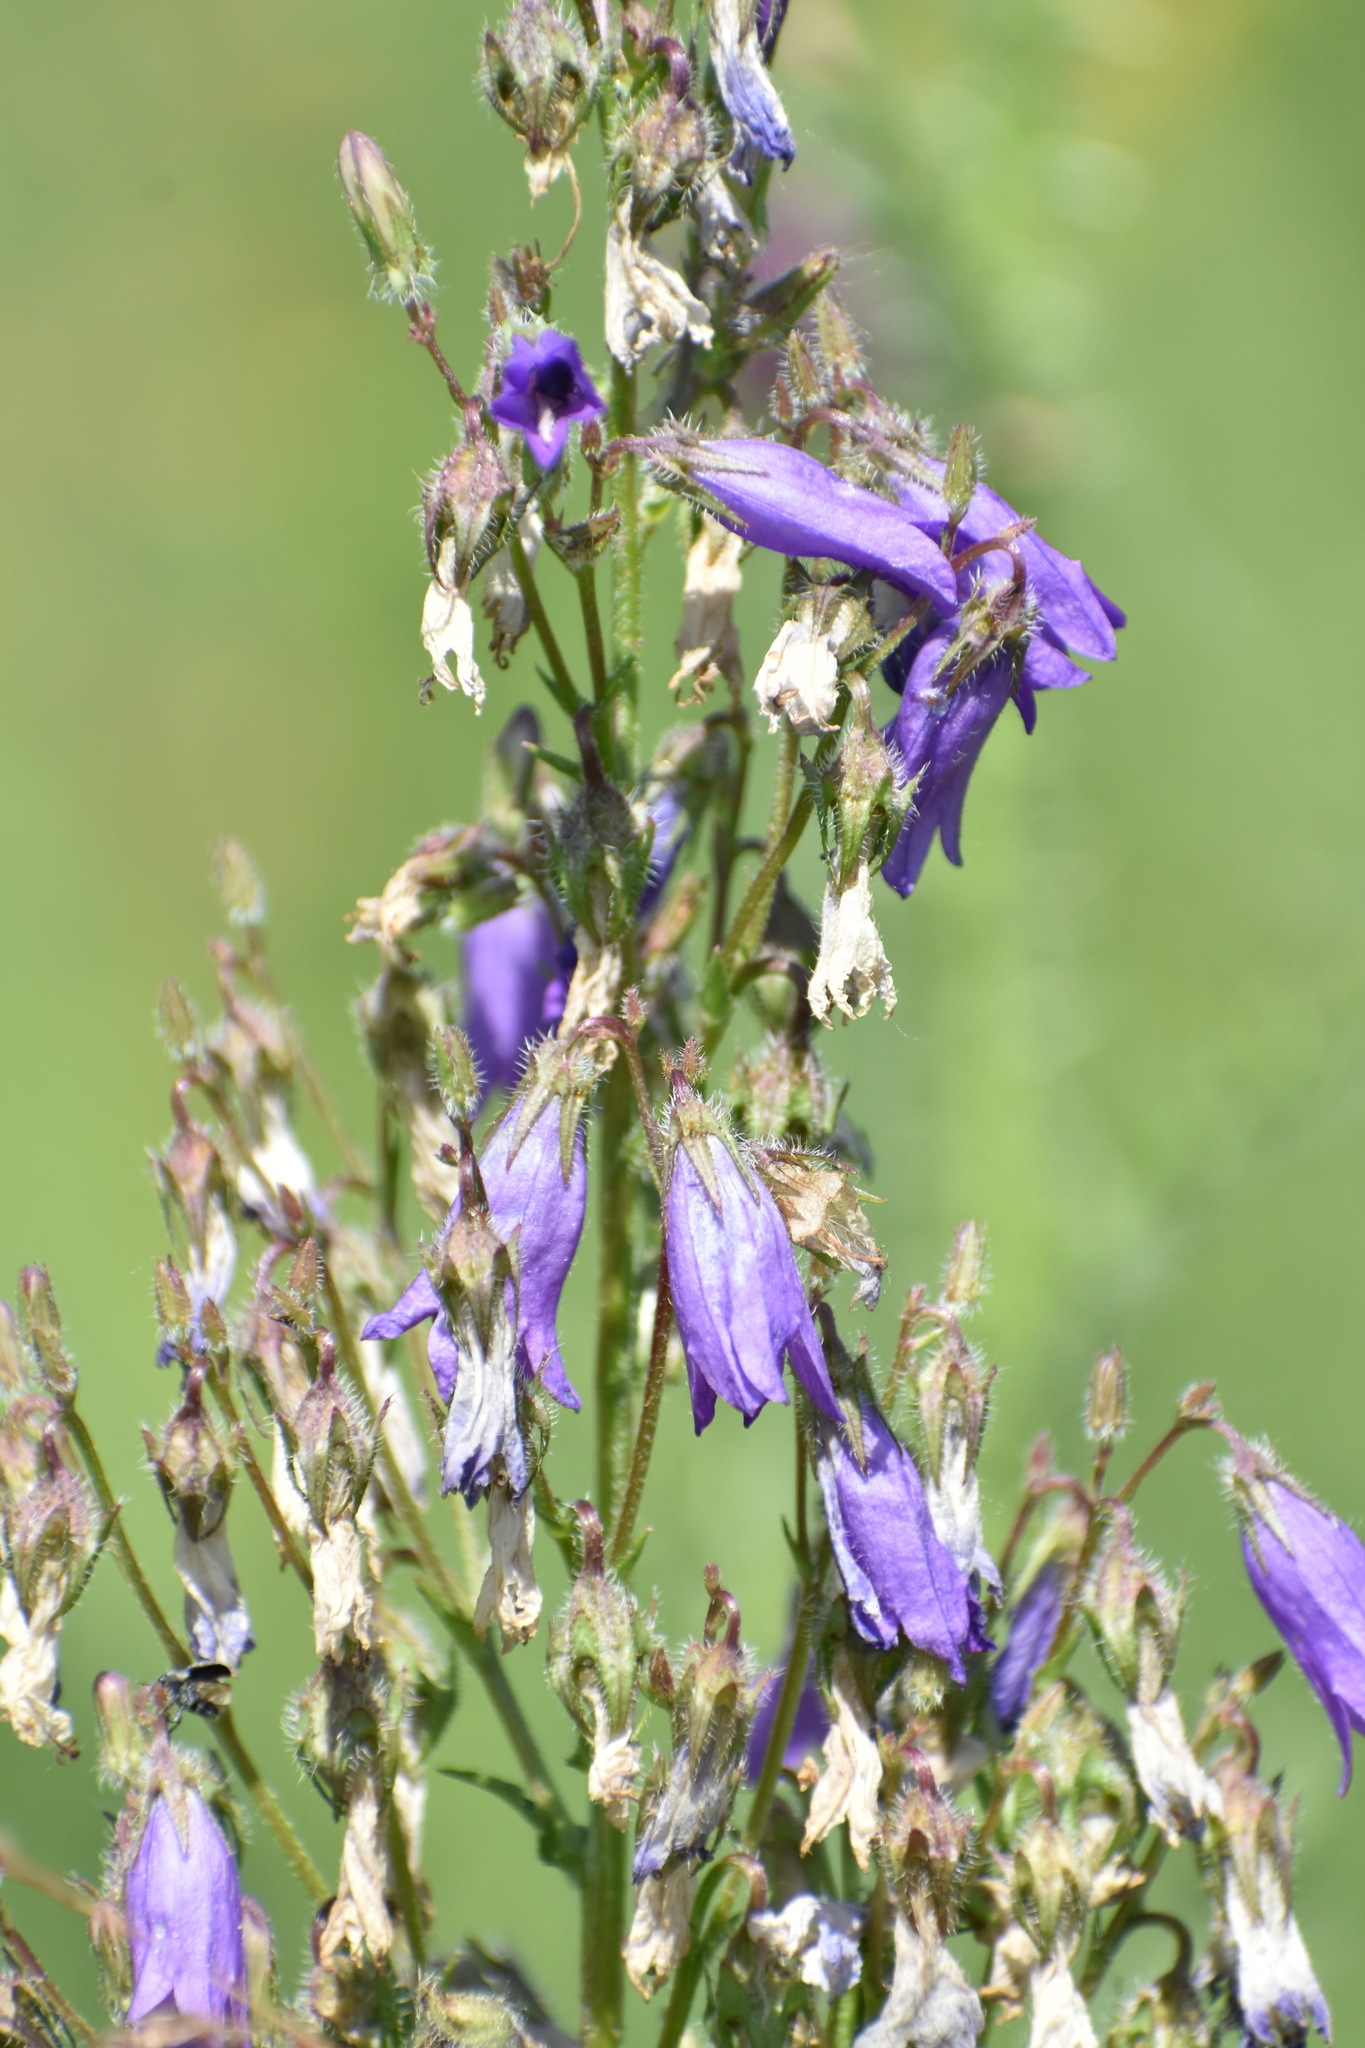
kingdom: Plantae
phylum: Tracheophyta
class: Magnoliopsida
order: Asterales
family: Campanulaceae
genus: Campanula
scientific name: Campanula sibirica
